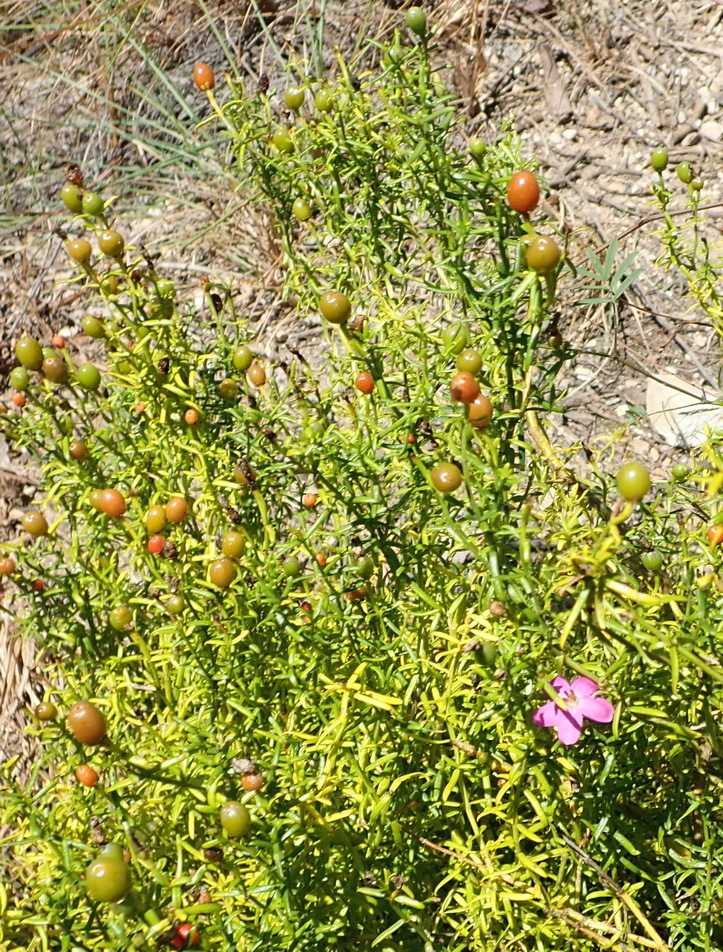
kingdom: Plantae
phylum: Tracheophyta
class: Magnoliopsida
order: Gentianales
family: Gentianaceae
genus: Chironia
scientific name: Chironia baccifera
